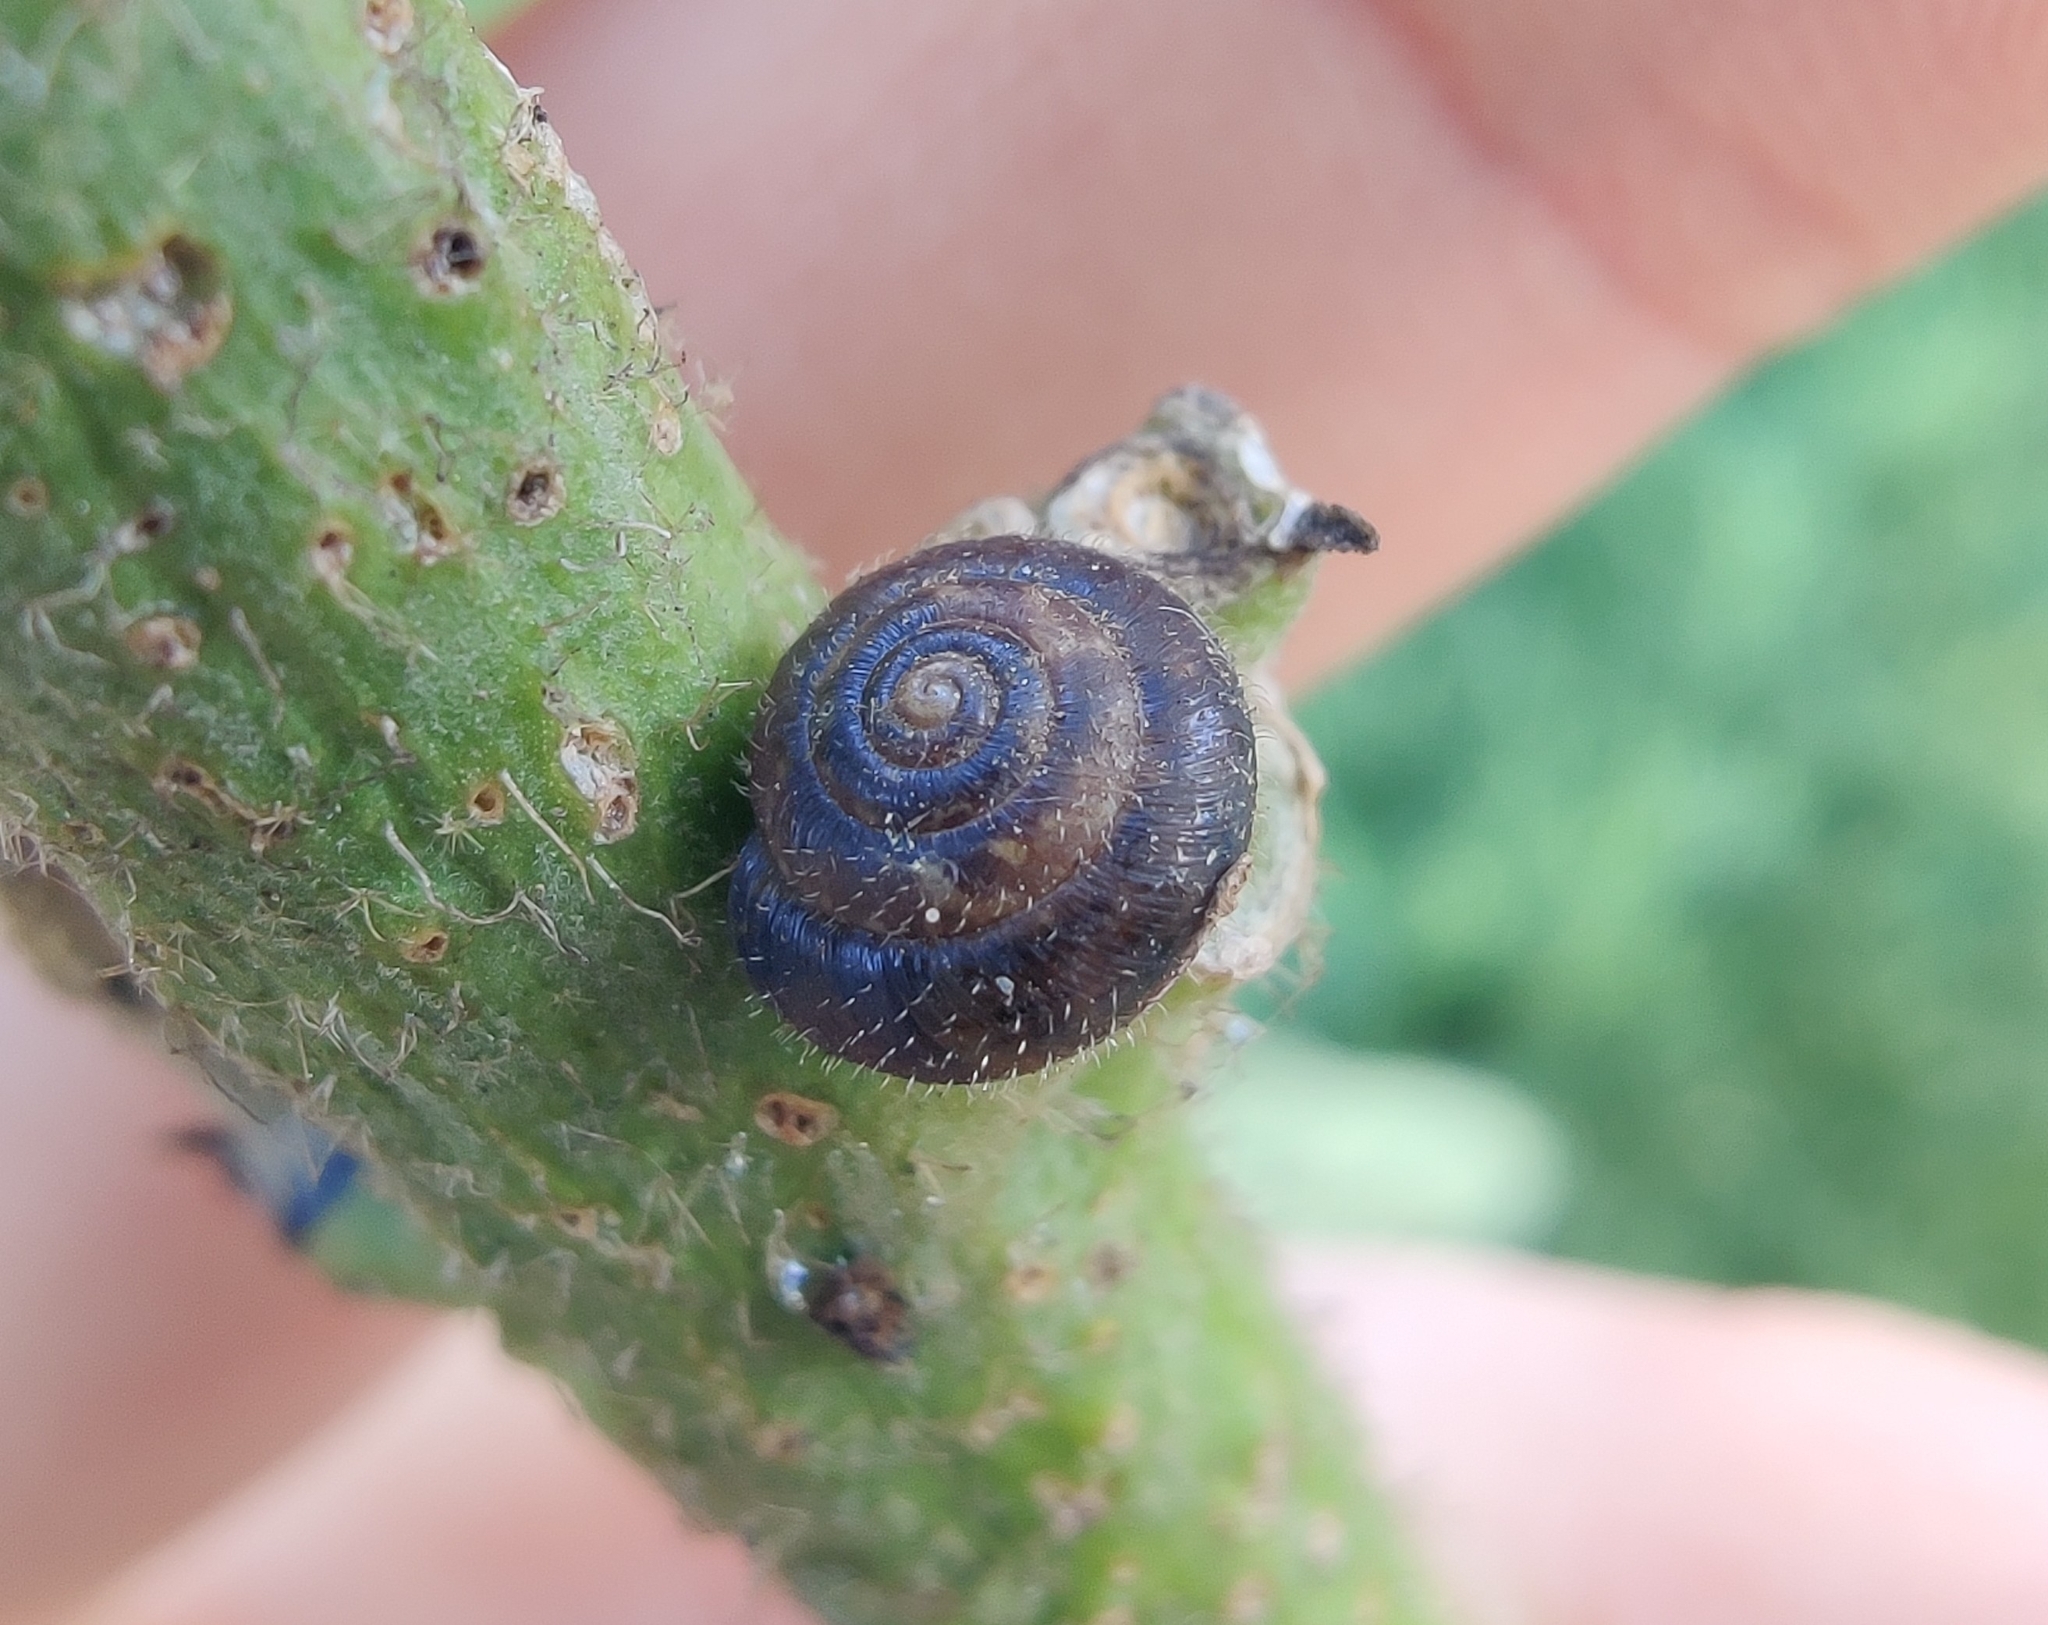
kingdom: Animalia
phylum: Mollusca
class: Gastropoda
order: Stylommatophora
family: Hygromiidae
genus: Trochulus
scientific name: Trochulus hispidus
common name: Hairy snail
